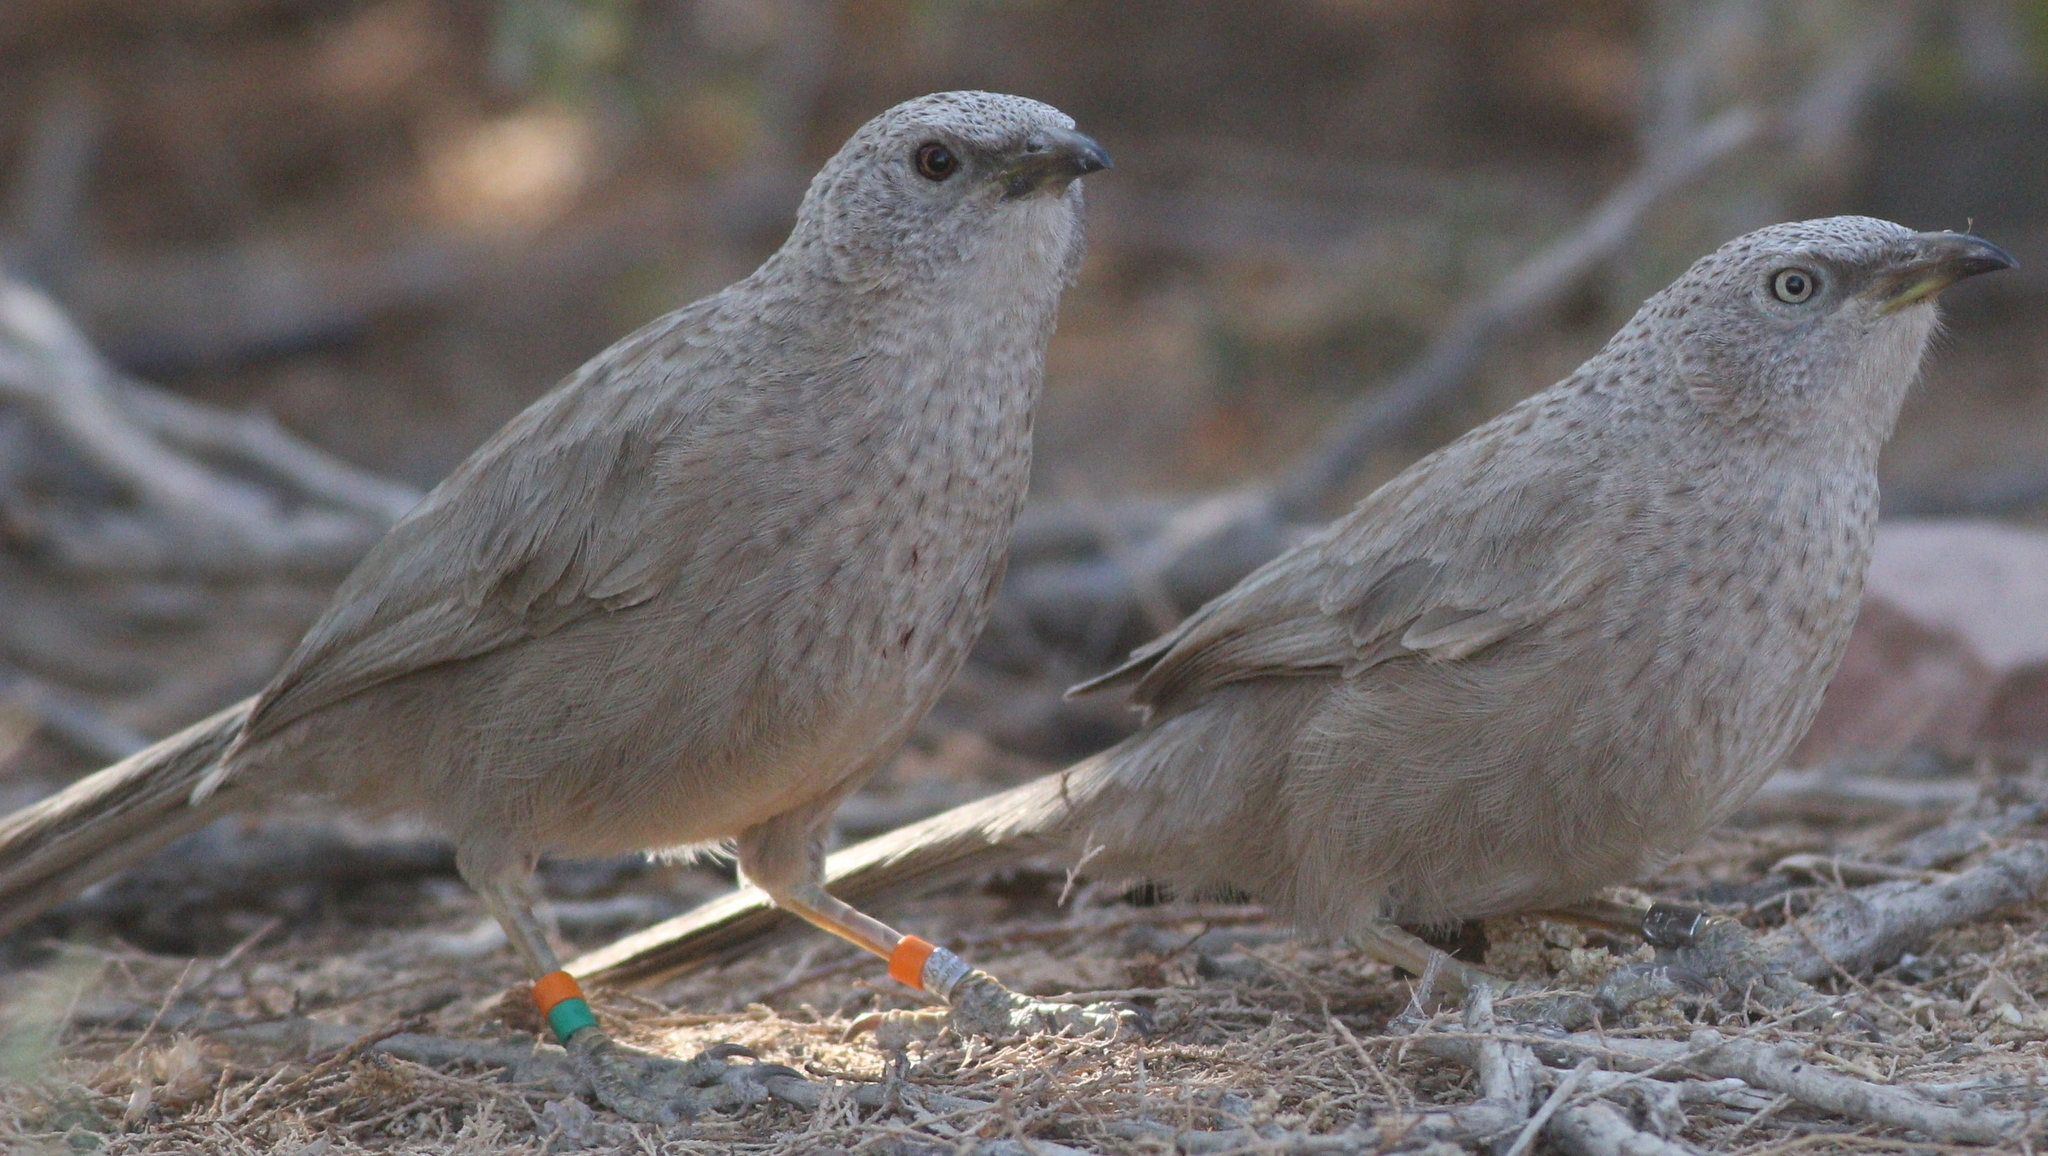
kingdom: Animalia
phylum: Chordata
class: Aves
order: Passeriformes
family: Leiothrichidae
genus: Turdoides
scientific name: Turdoides squamiceps
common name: Arabian babbler
